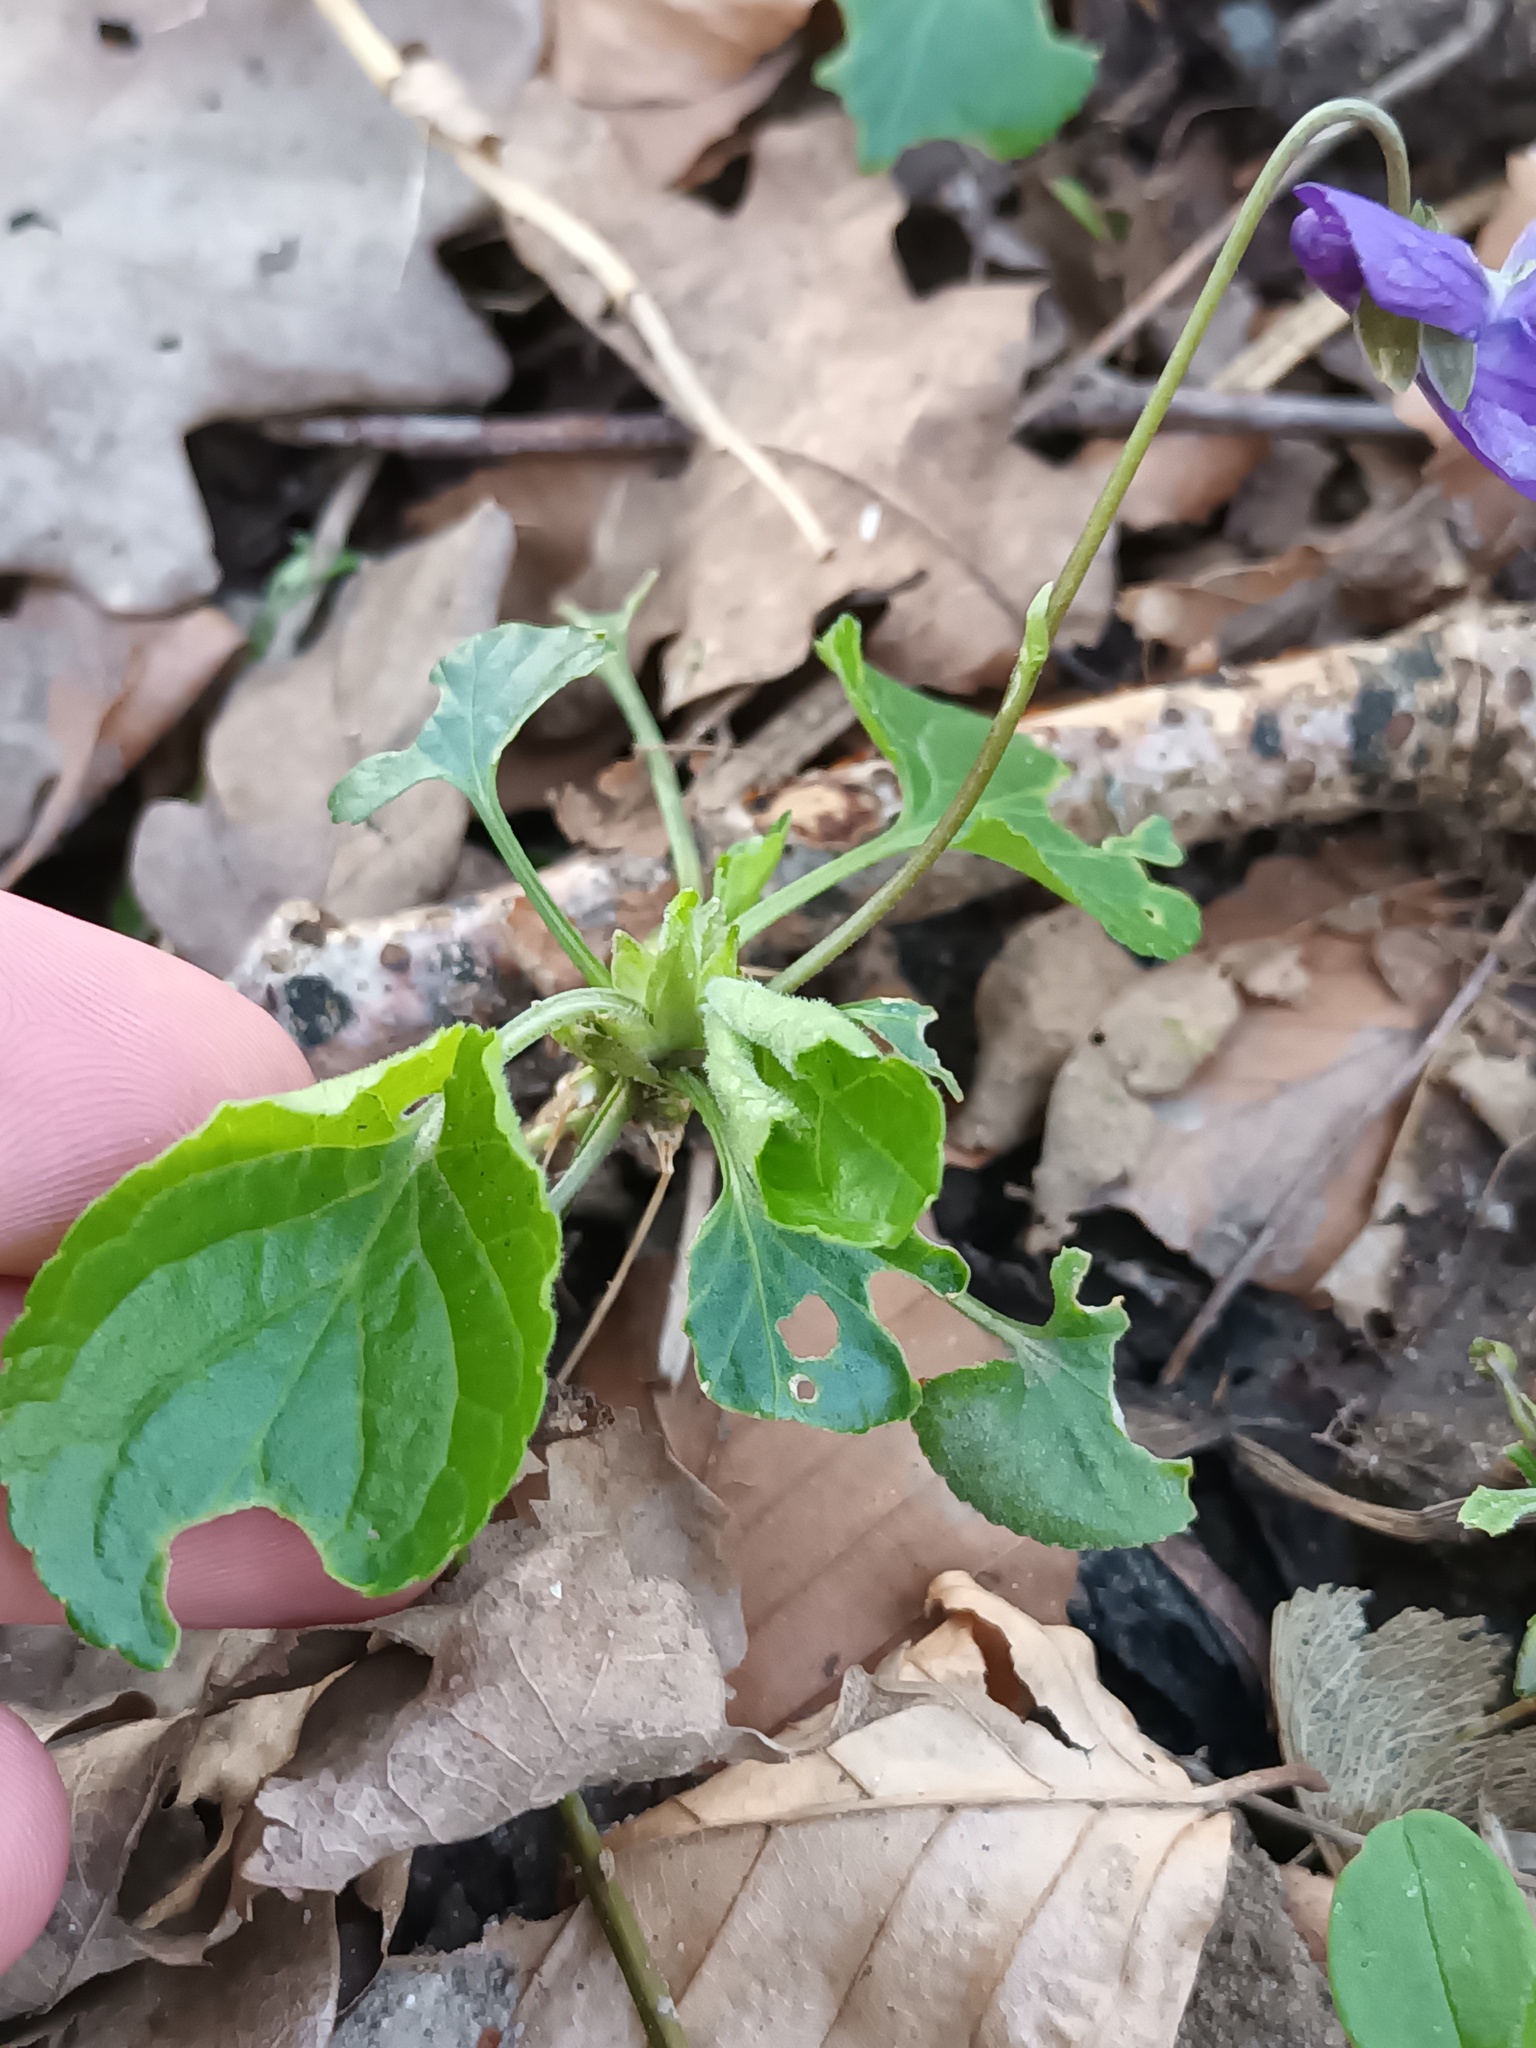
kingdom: Plantae
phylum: Tracheophyta
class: Magnoliopsida
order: Malpighiales
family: Violaceae
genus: Viola
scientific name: Viola odorata
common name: Sweet violet
